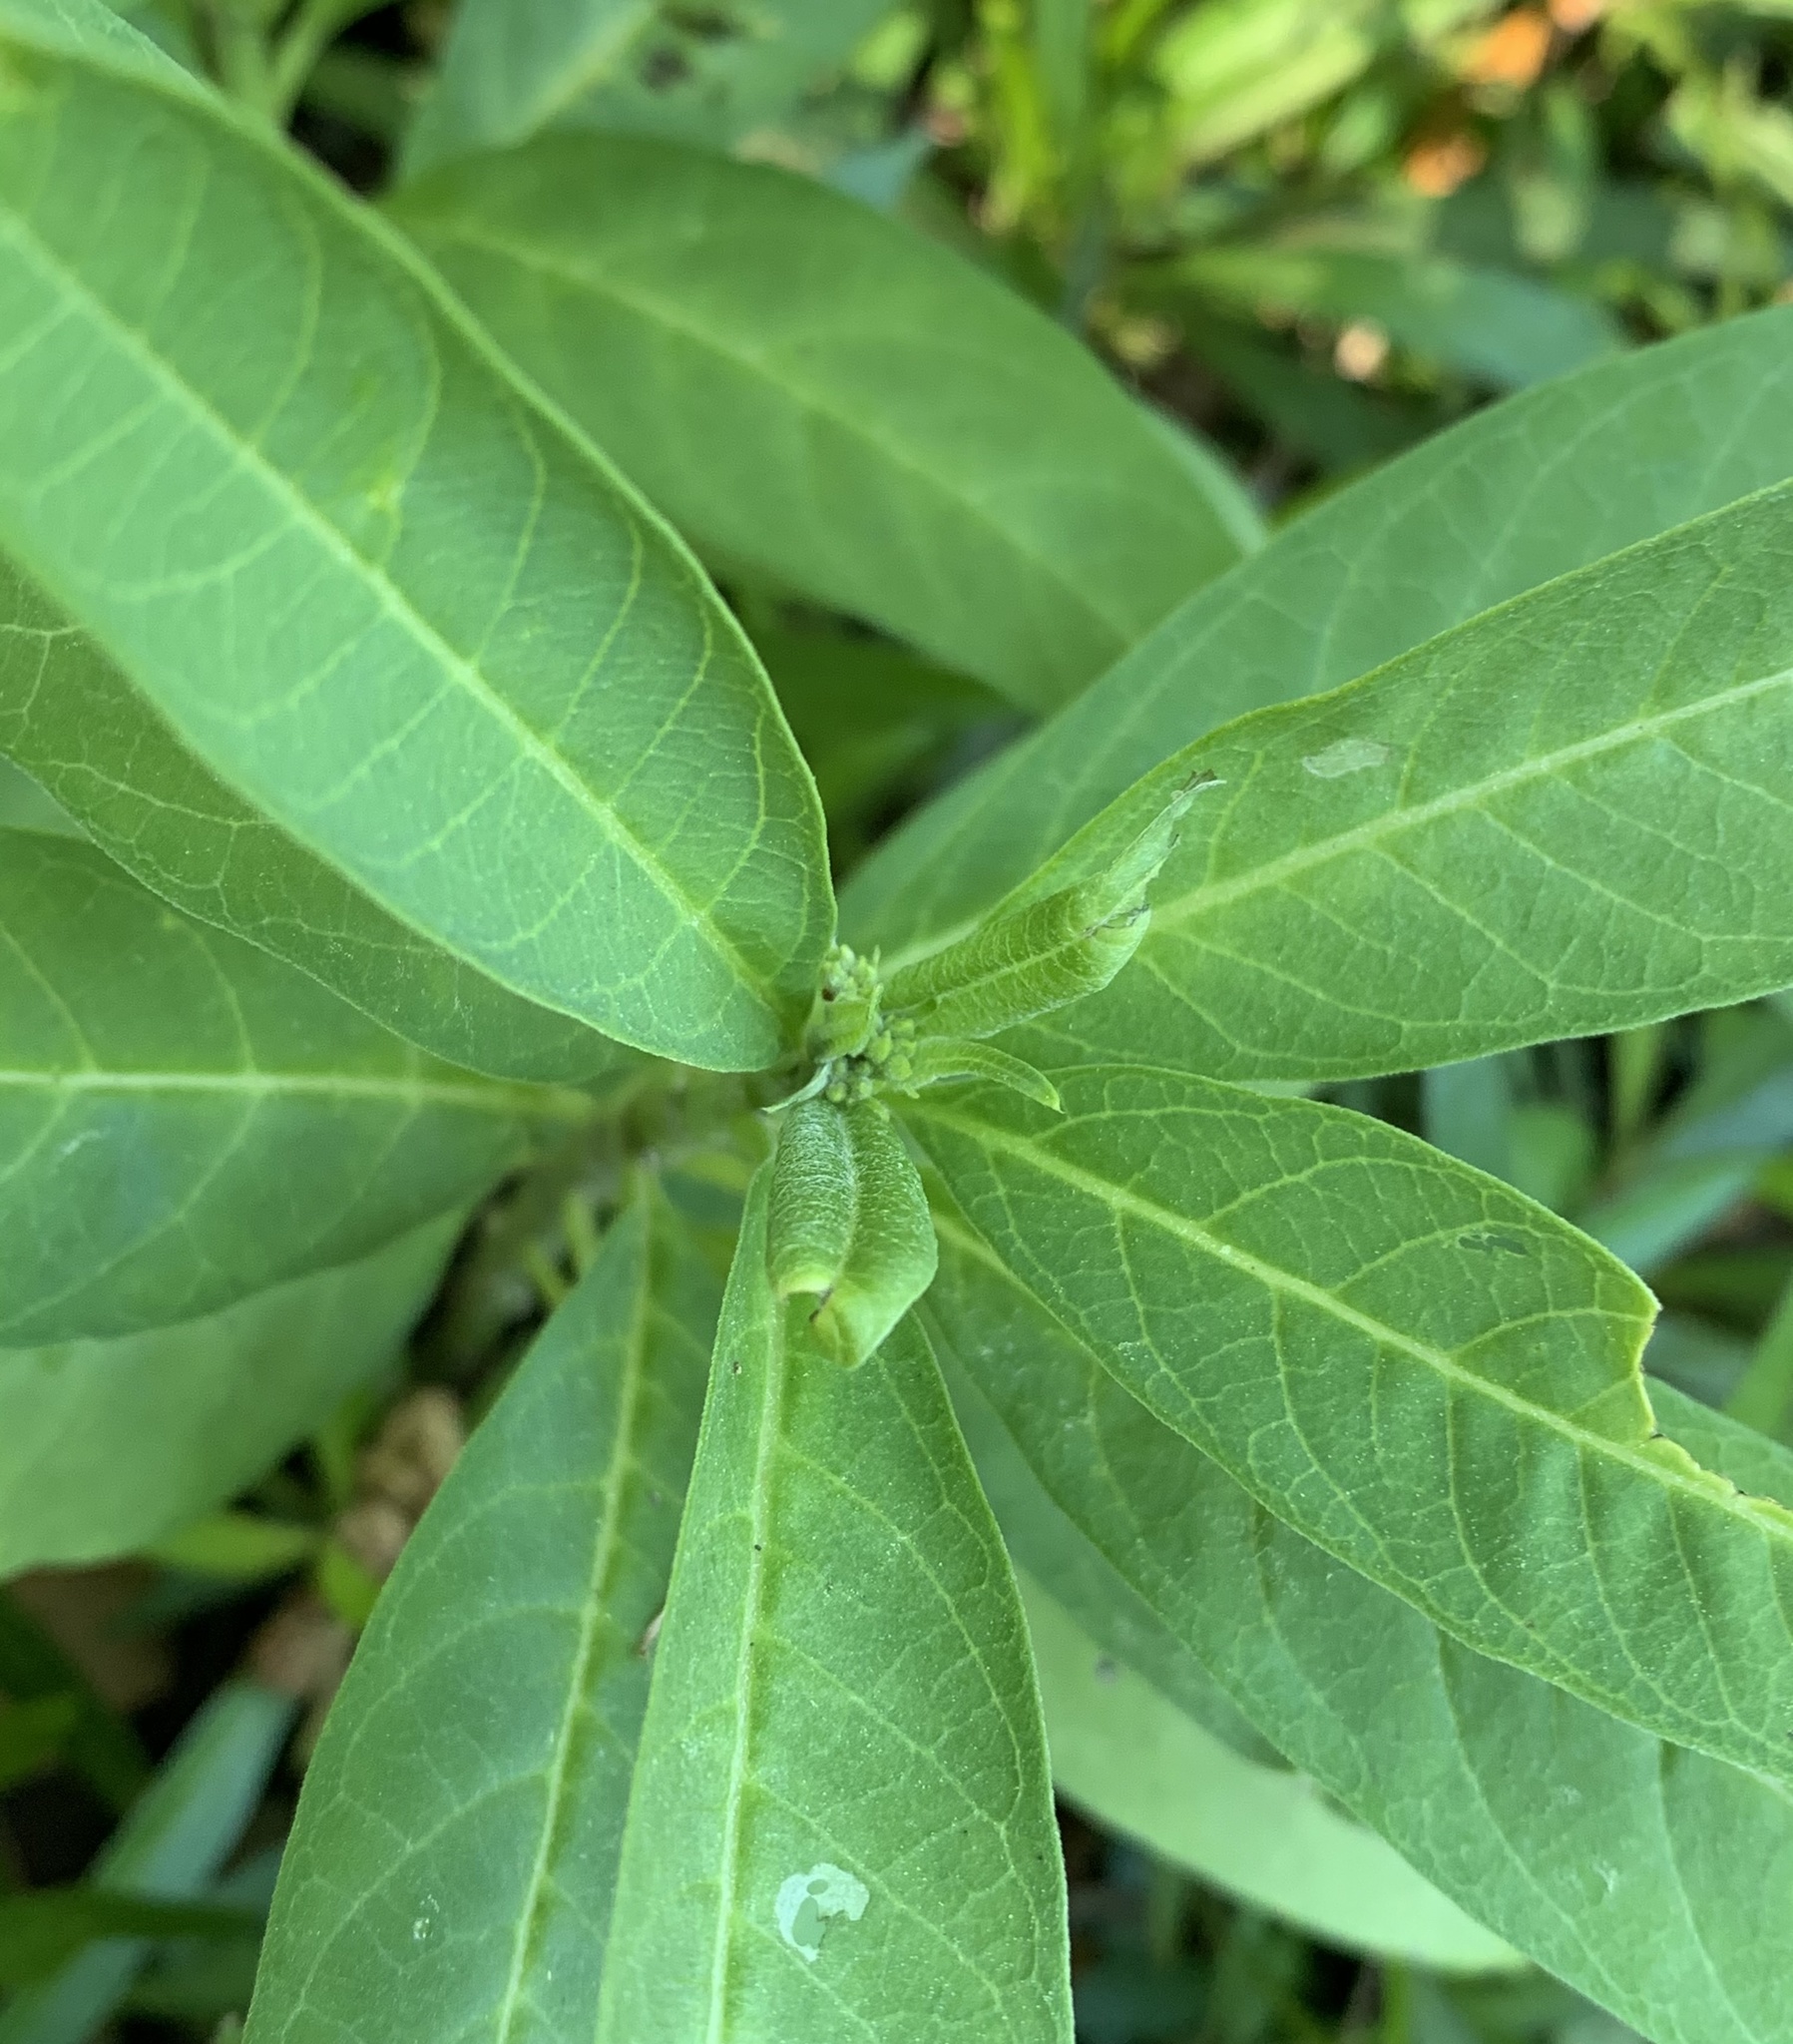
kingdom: Plantae
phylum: Tracheophyta
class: Magnoliopsida
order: Gentianales
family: Apocynaceae
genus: Asclepias
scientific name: Asclepias curassavica
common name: Bloodflower
